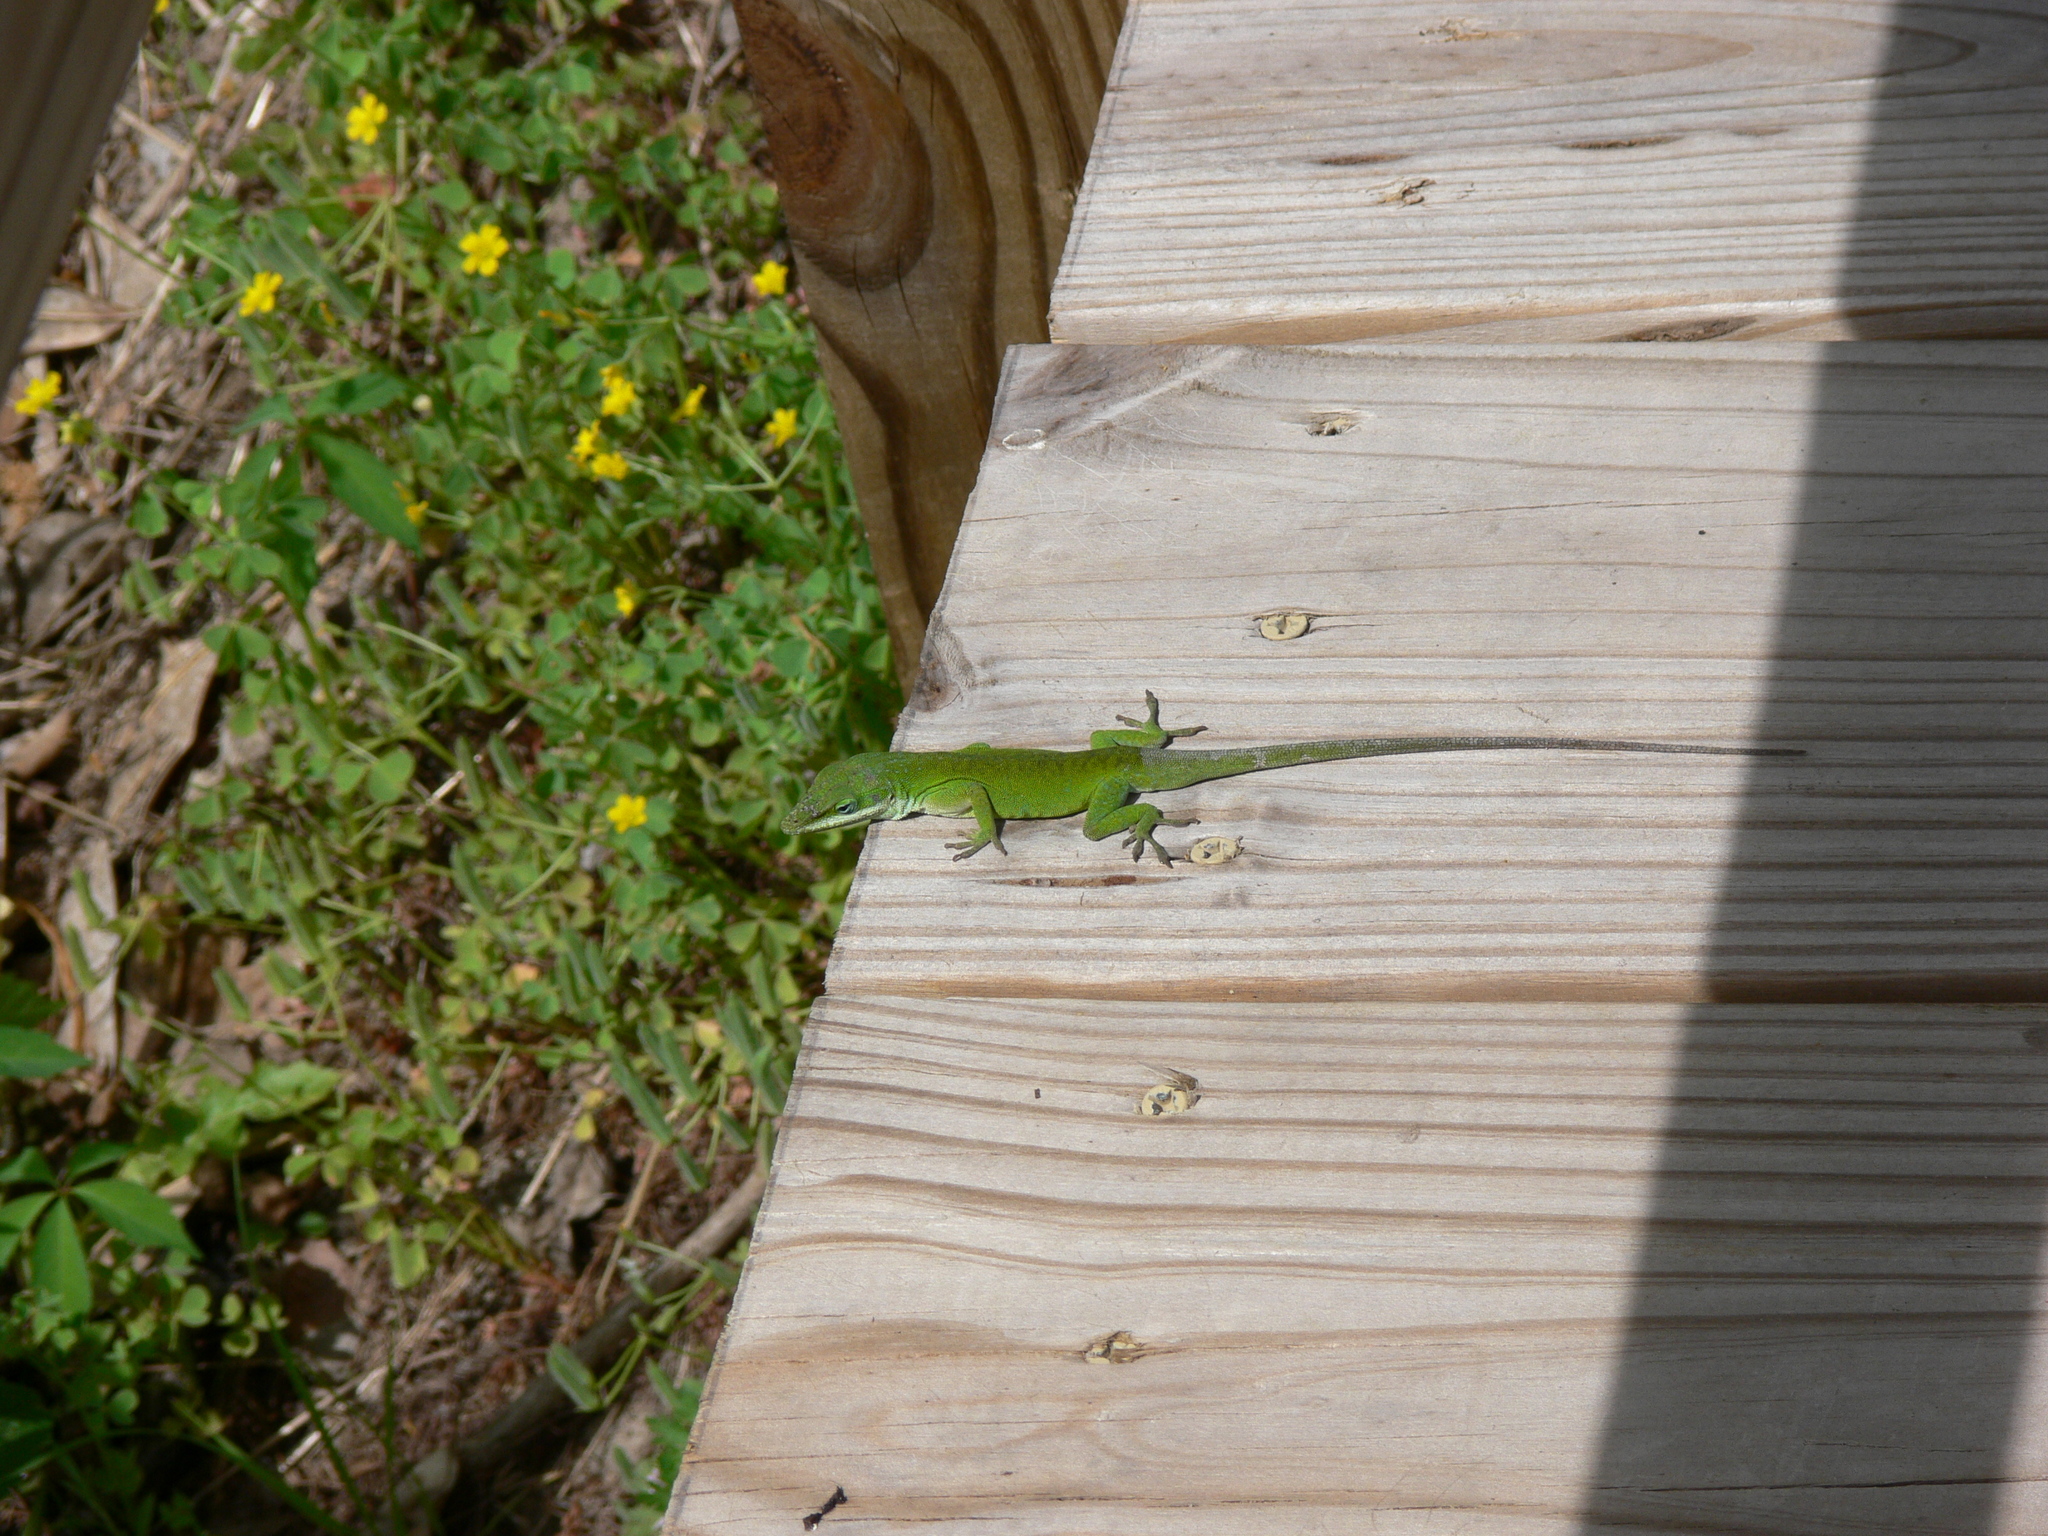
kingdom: Animalia
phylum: Chordata
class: Squamata
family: Dactyloidae
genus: Anolis
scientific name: Anolis carolinensis
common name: Green anole
